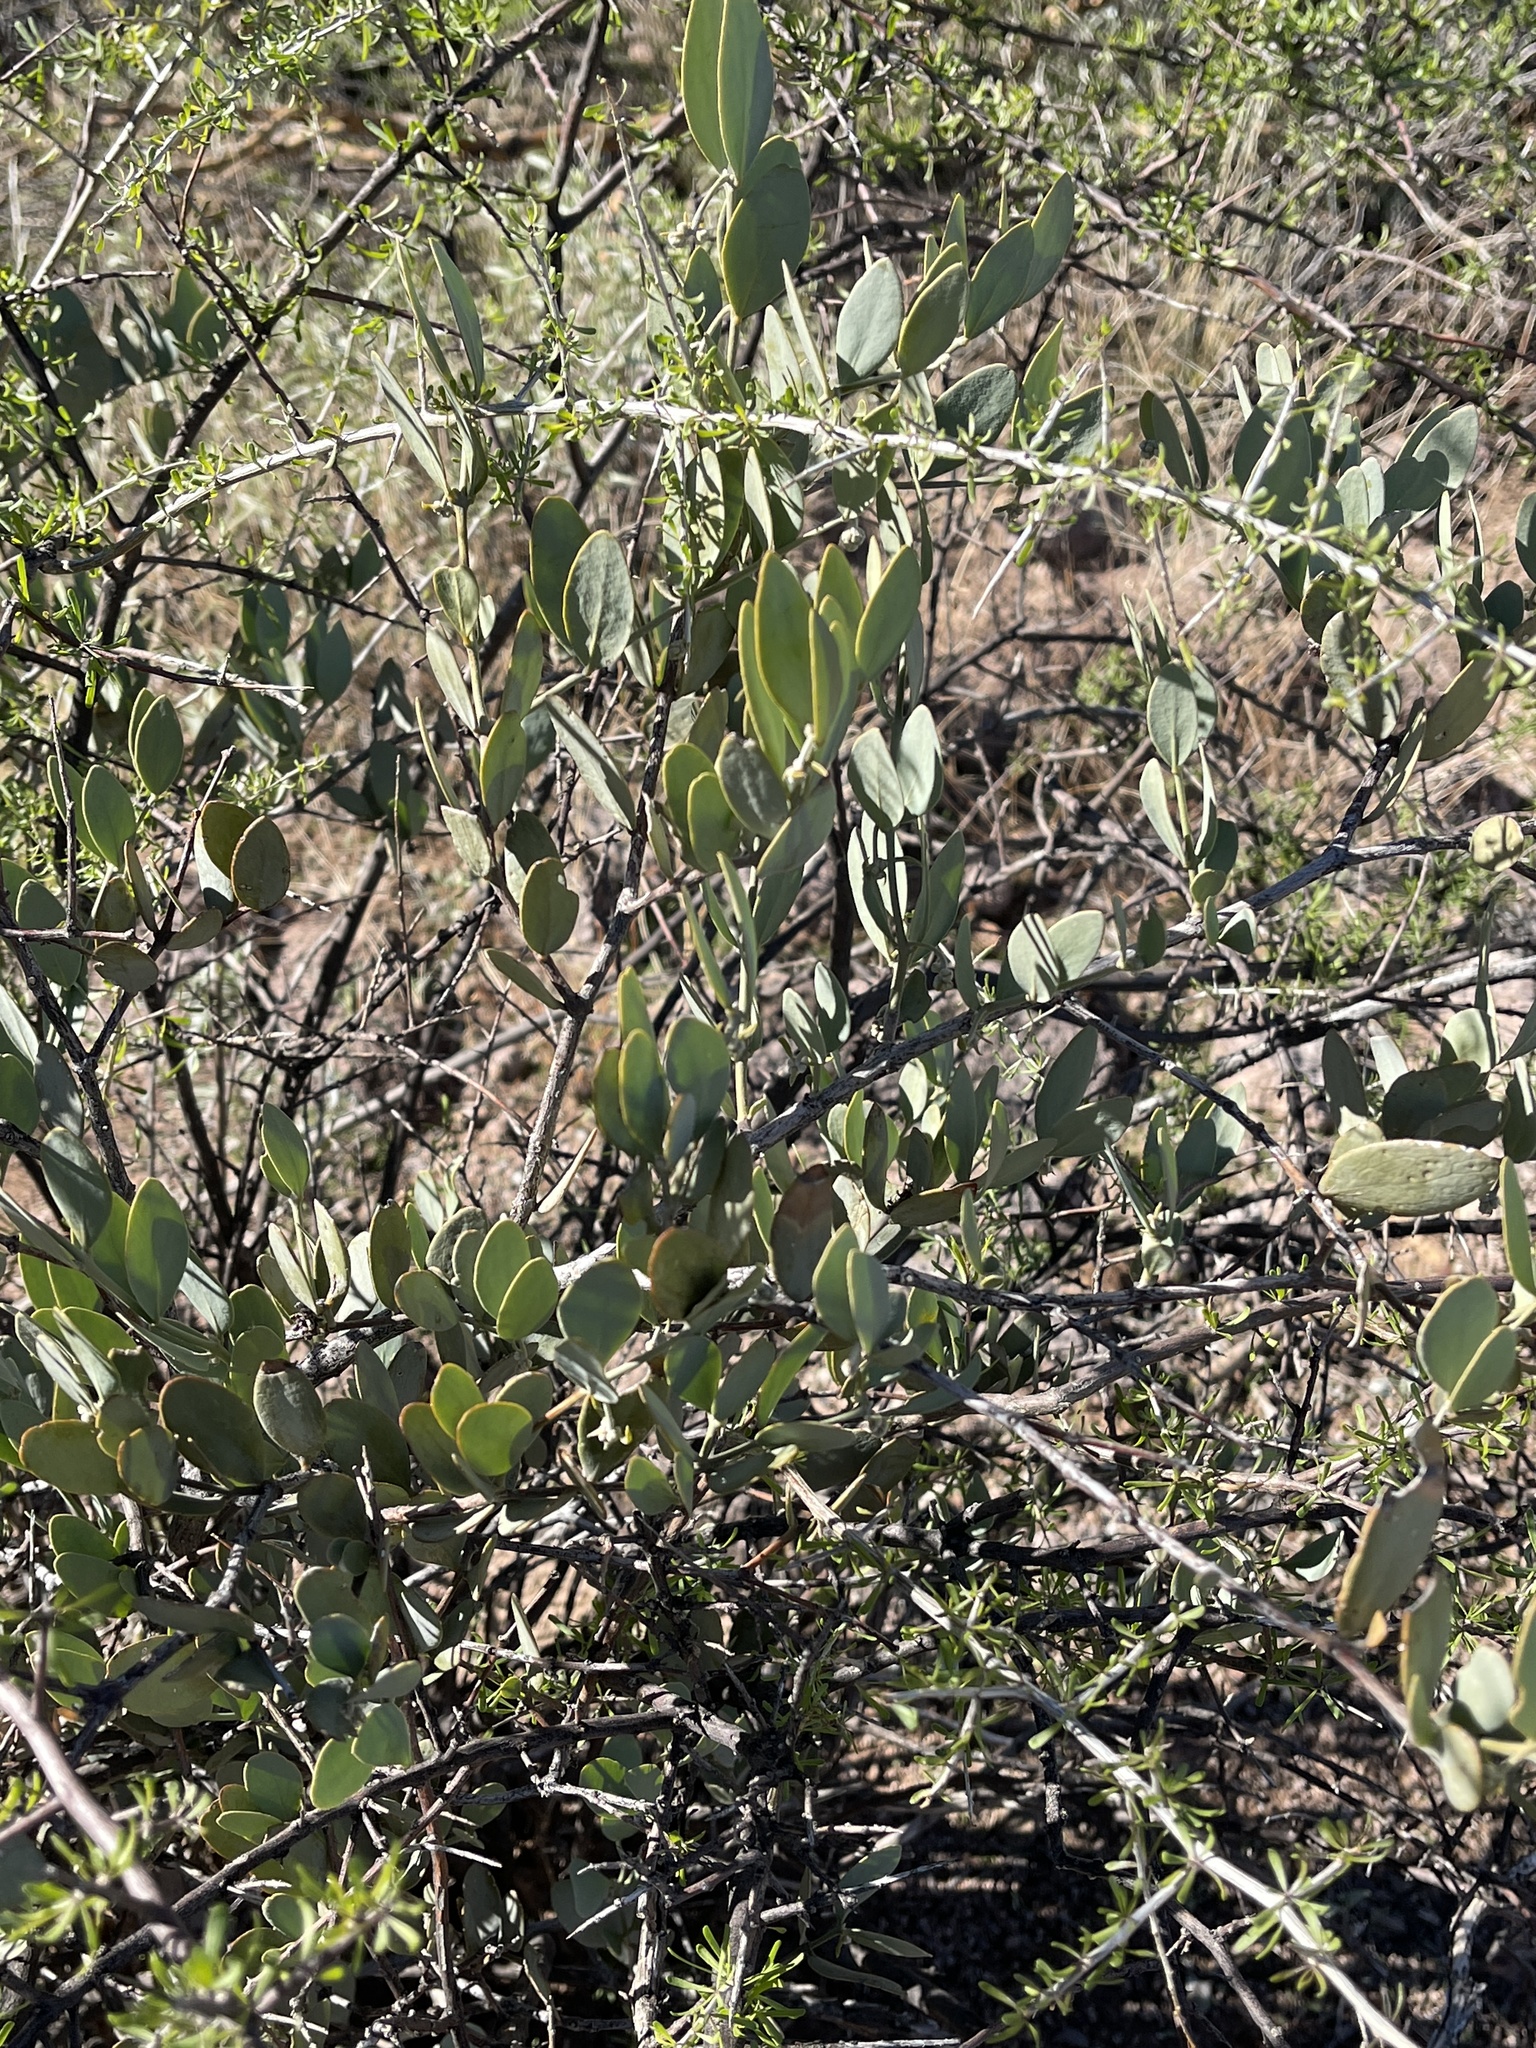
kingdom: Plantae
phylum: Tracheophyta
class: Magnoliopsida
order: Caryophyllales
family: Simmondsiaceae
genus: Simmondsia
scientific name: Simmondsia chinensis
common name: Jojoba
